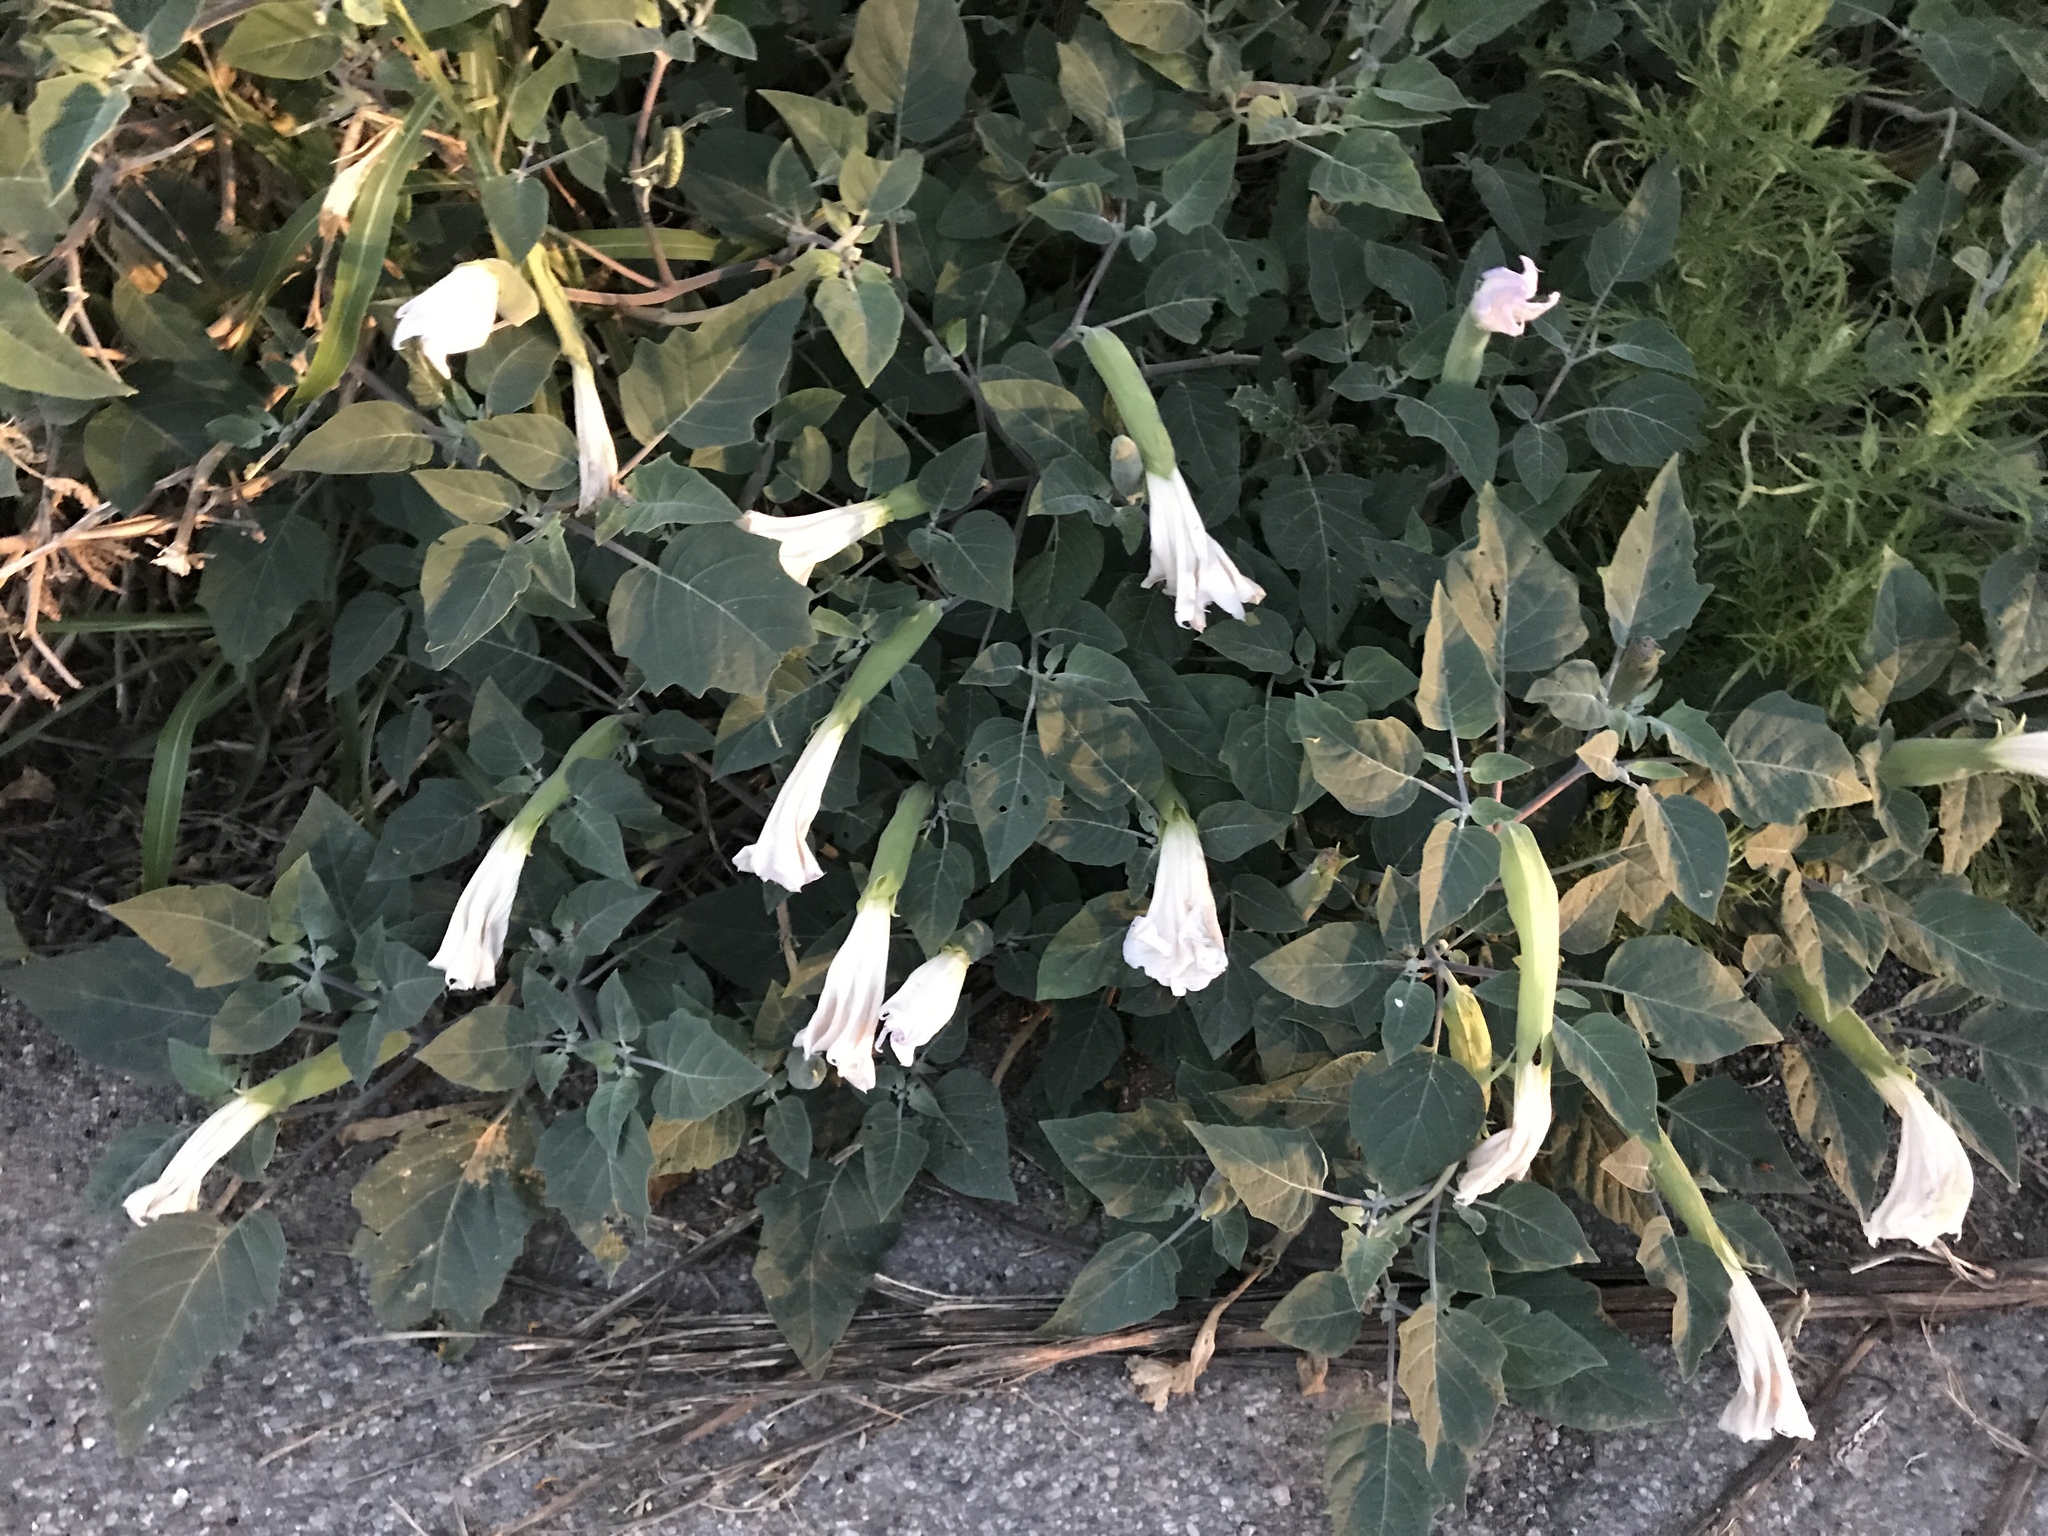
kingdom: Plantae
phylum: Tracheophyta
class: Magnoliopsida
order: Solanales
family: Solanaceae
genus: Datura
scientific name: Datura wrightii
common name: Sacred thorn-apple
